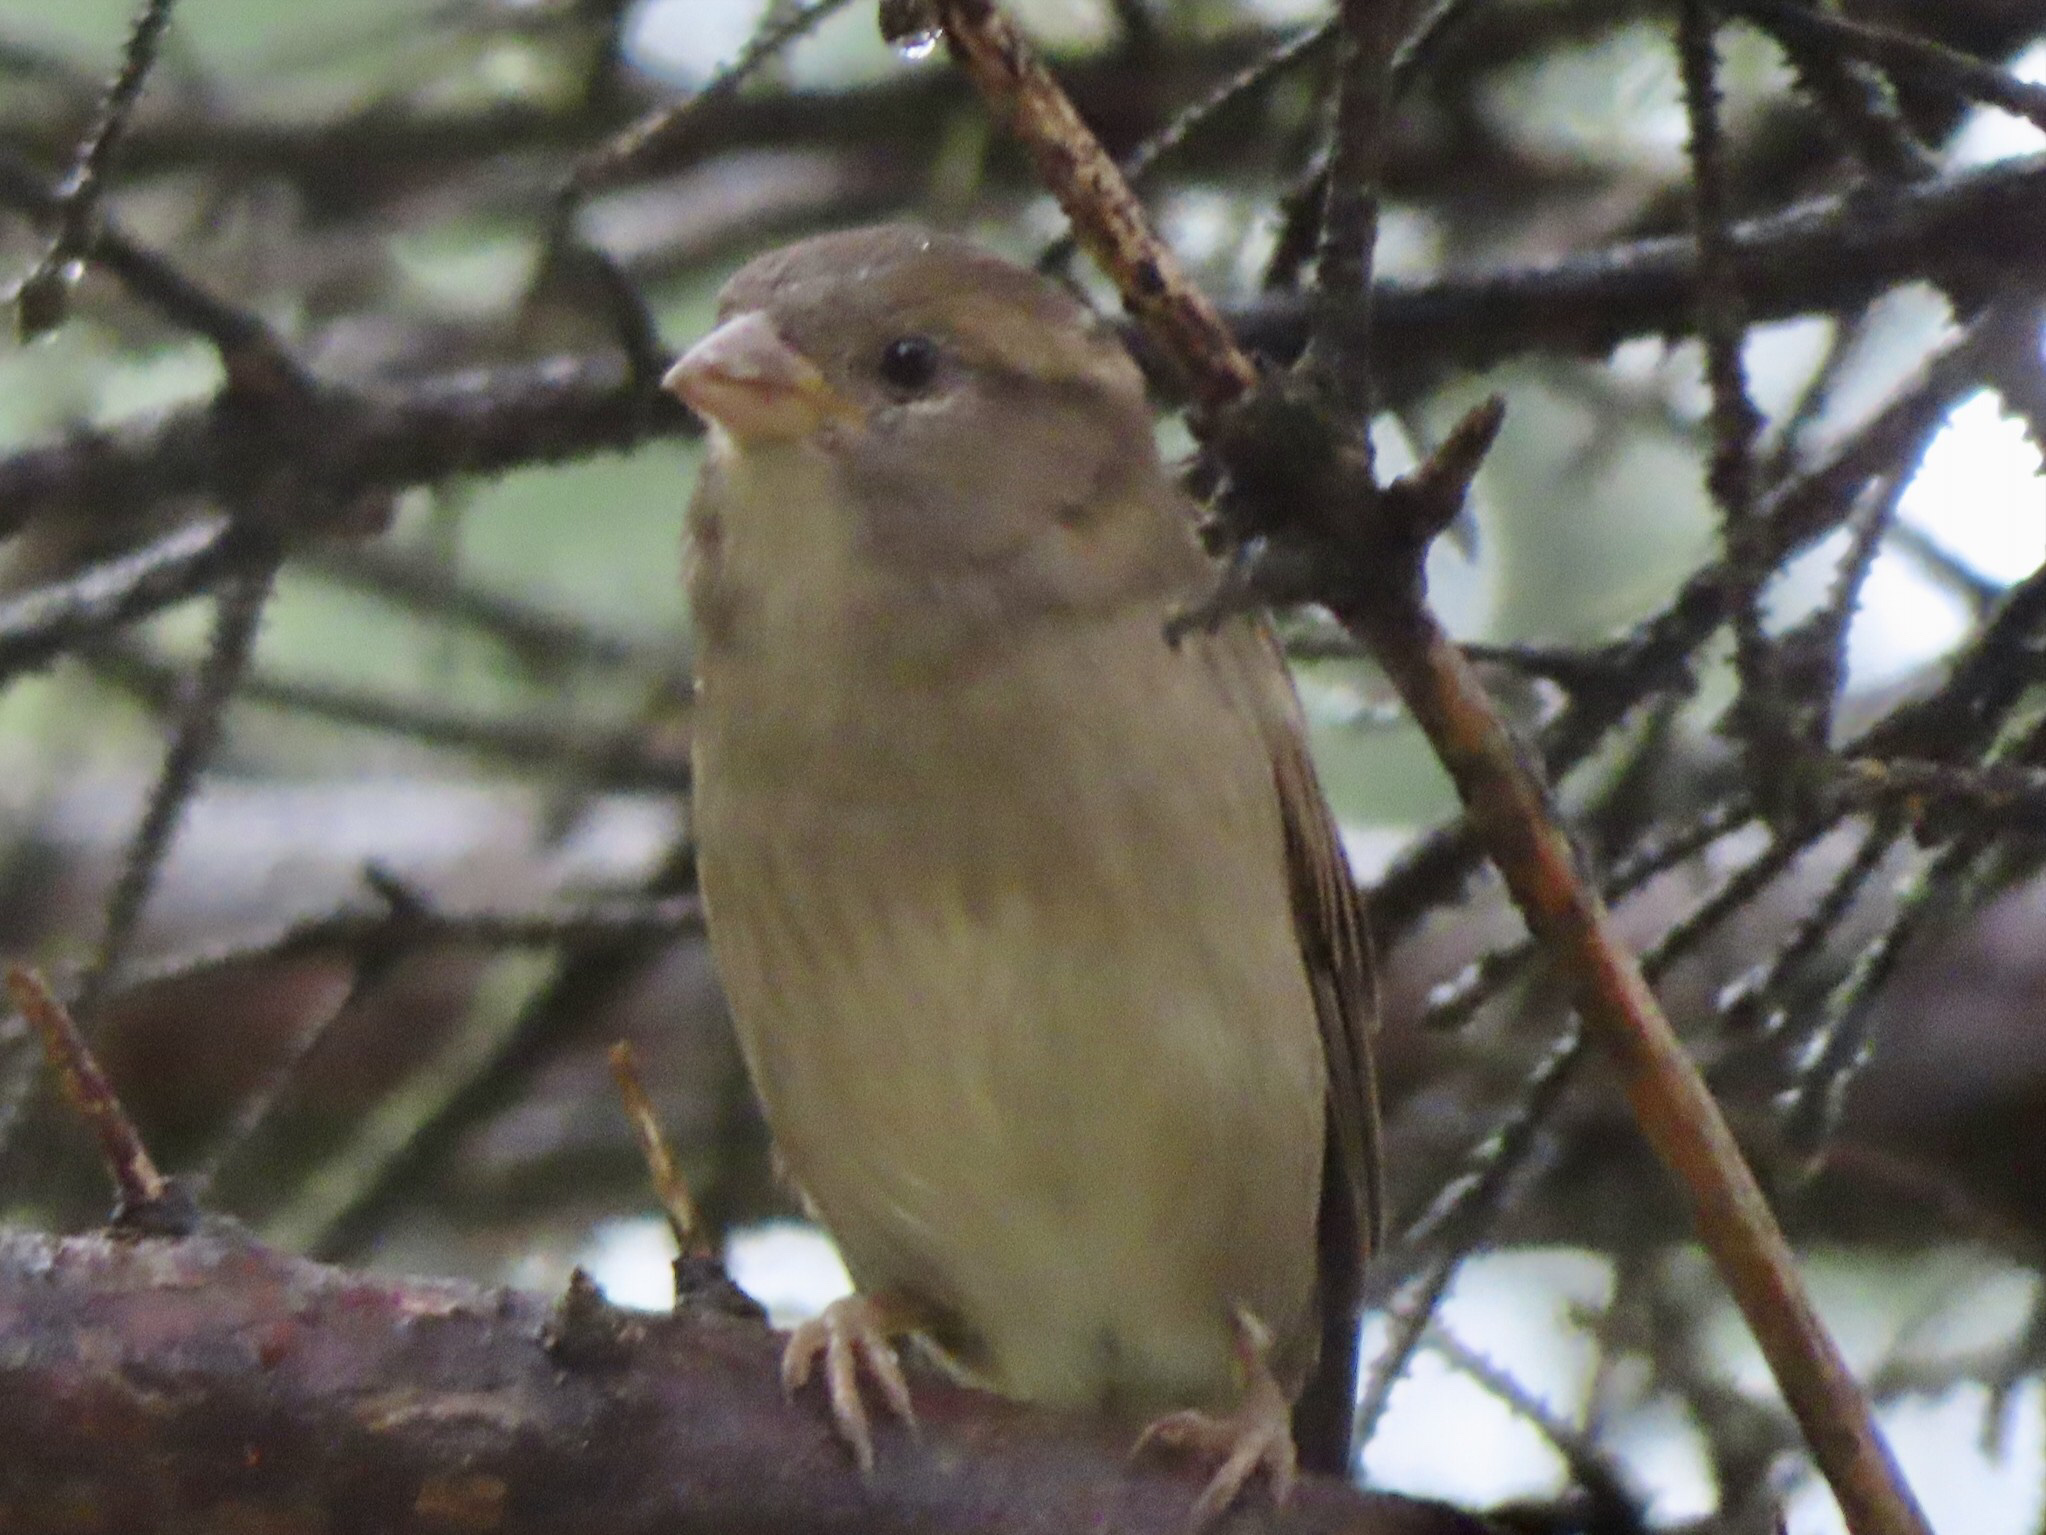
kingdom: Animalia
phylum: Chordata
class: Aves
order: Passeriformes
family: Passeridae
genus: Passer
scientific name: Passer domesticus
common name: House sparrow
